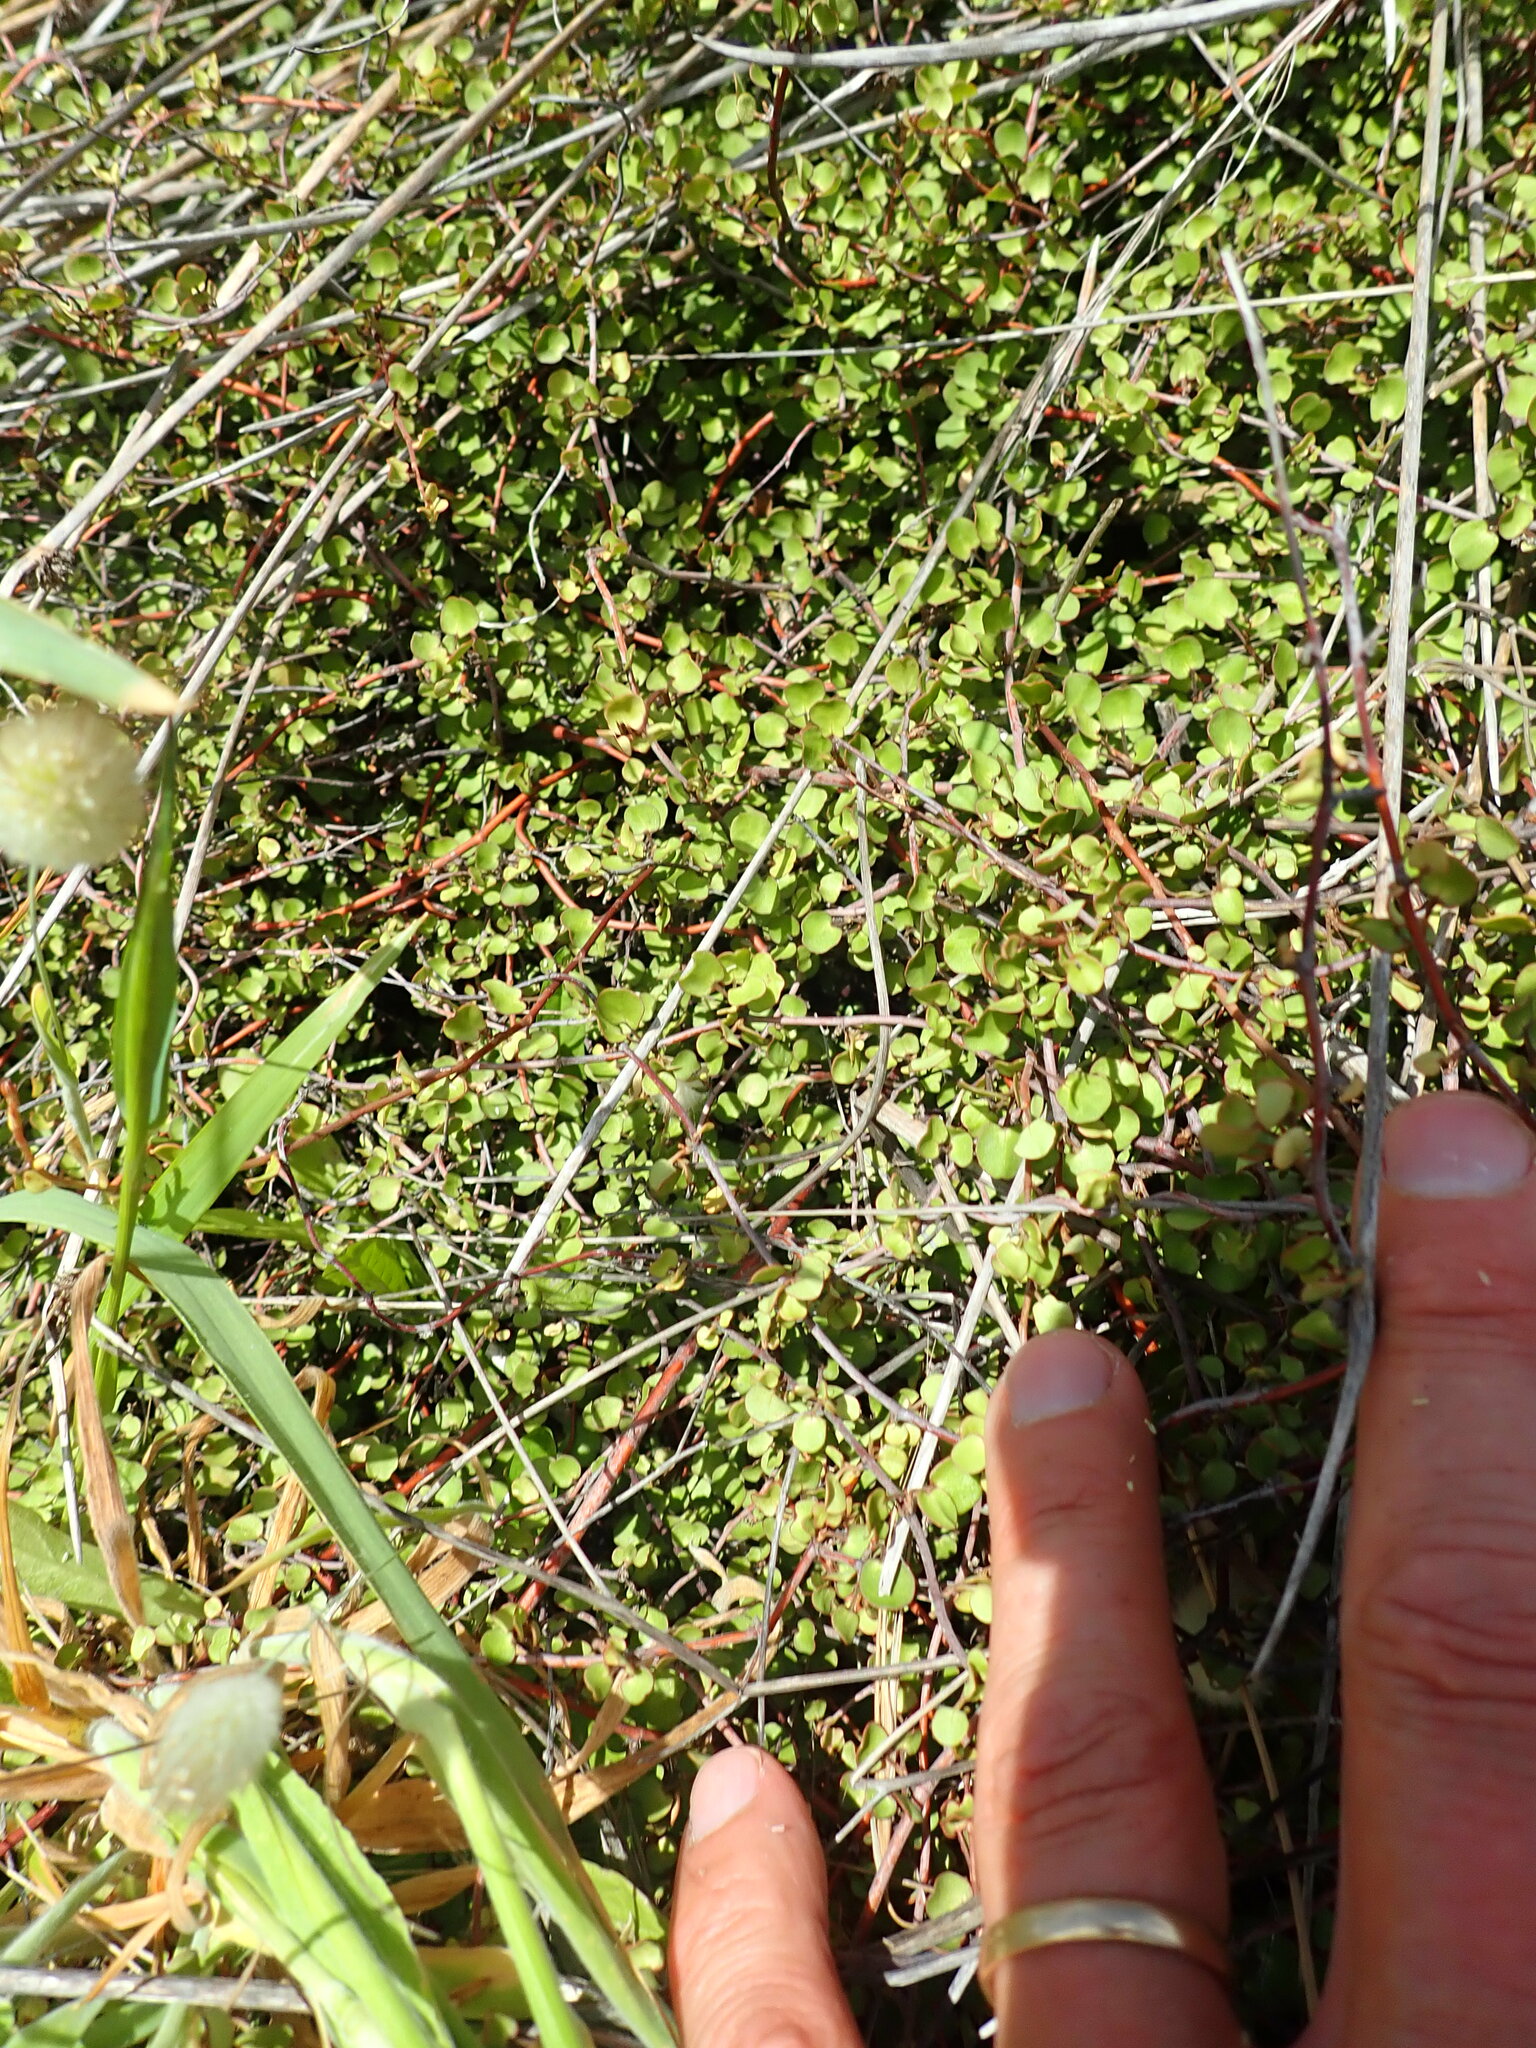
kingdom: Plantae
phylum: Tracheophyta
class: Magnoliopsida
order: Caryophyllales
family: Polygonaceae
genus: Muehlenbeckia
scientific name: Muehlenbeckia complexa
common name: Wireplant
